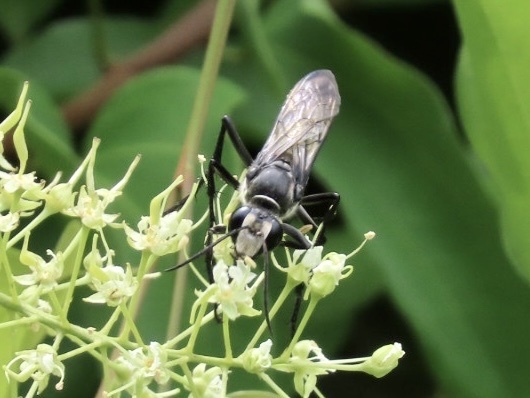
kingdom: Animalia
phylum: Arthropoda
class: Insecta
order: Hymenoptera
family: Sphecidae
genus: Sphex
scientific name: Sphex argentatus
